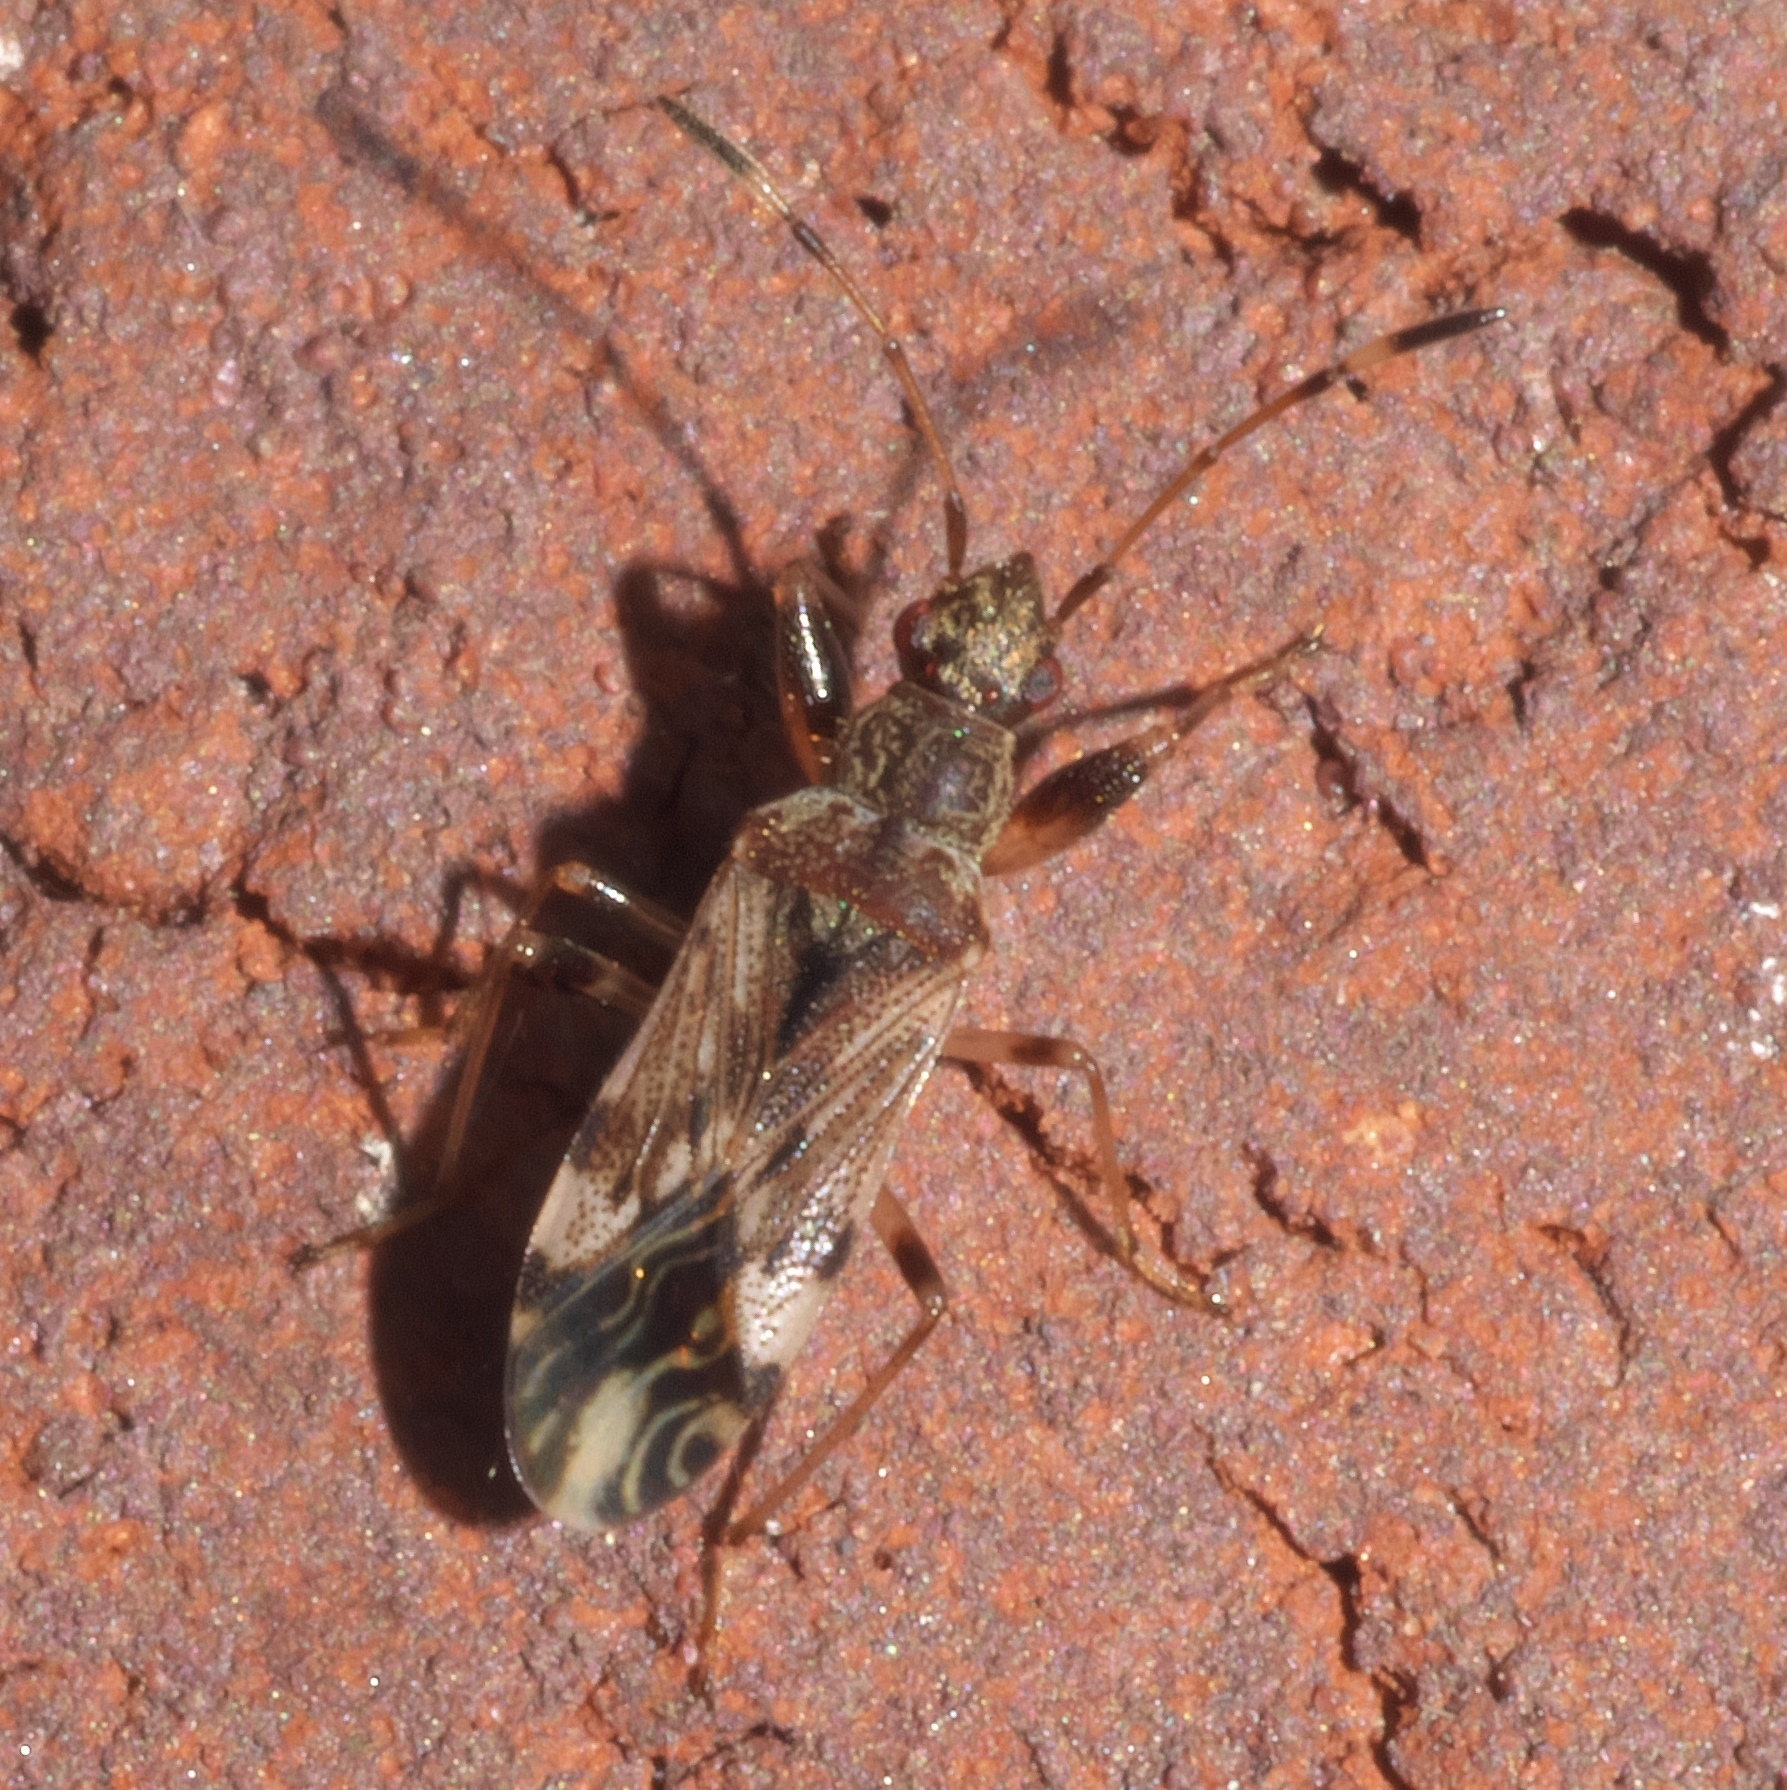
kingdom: Animalia
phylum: Arthropoda
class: Insecta
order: Hemiptera
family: Rhyparochromidae
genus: Neopamera
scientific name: Neopamera albocincta
